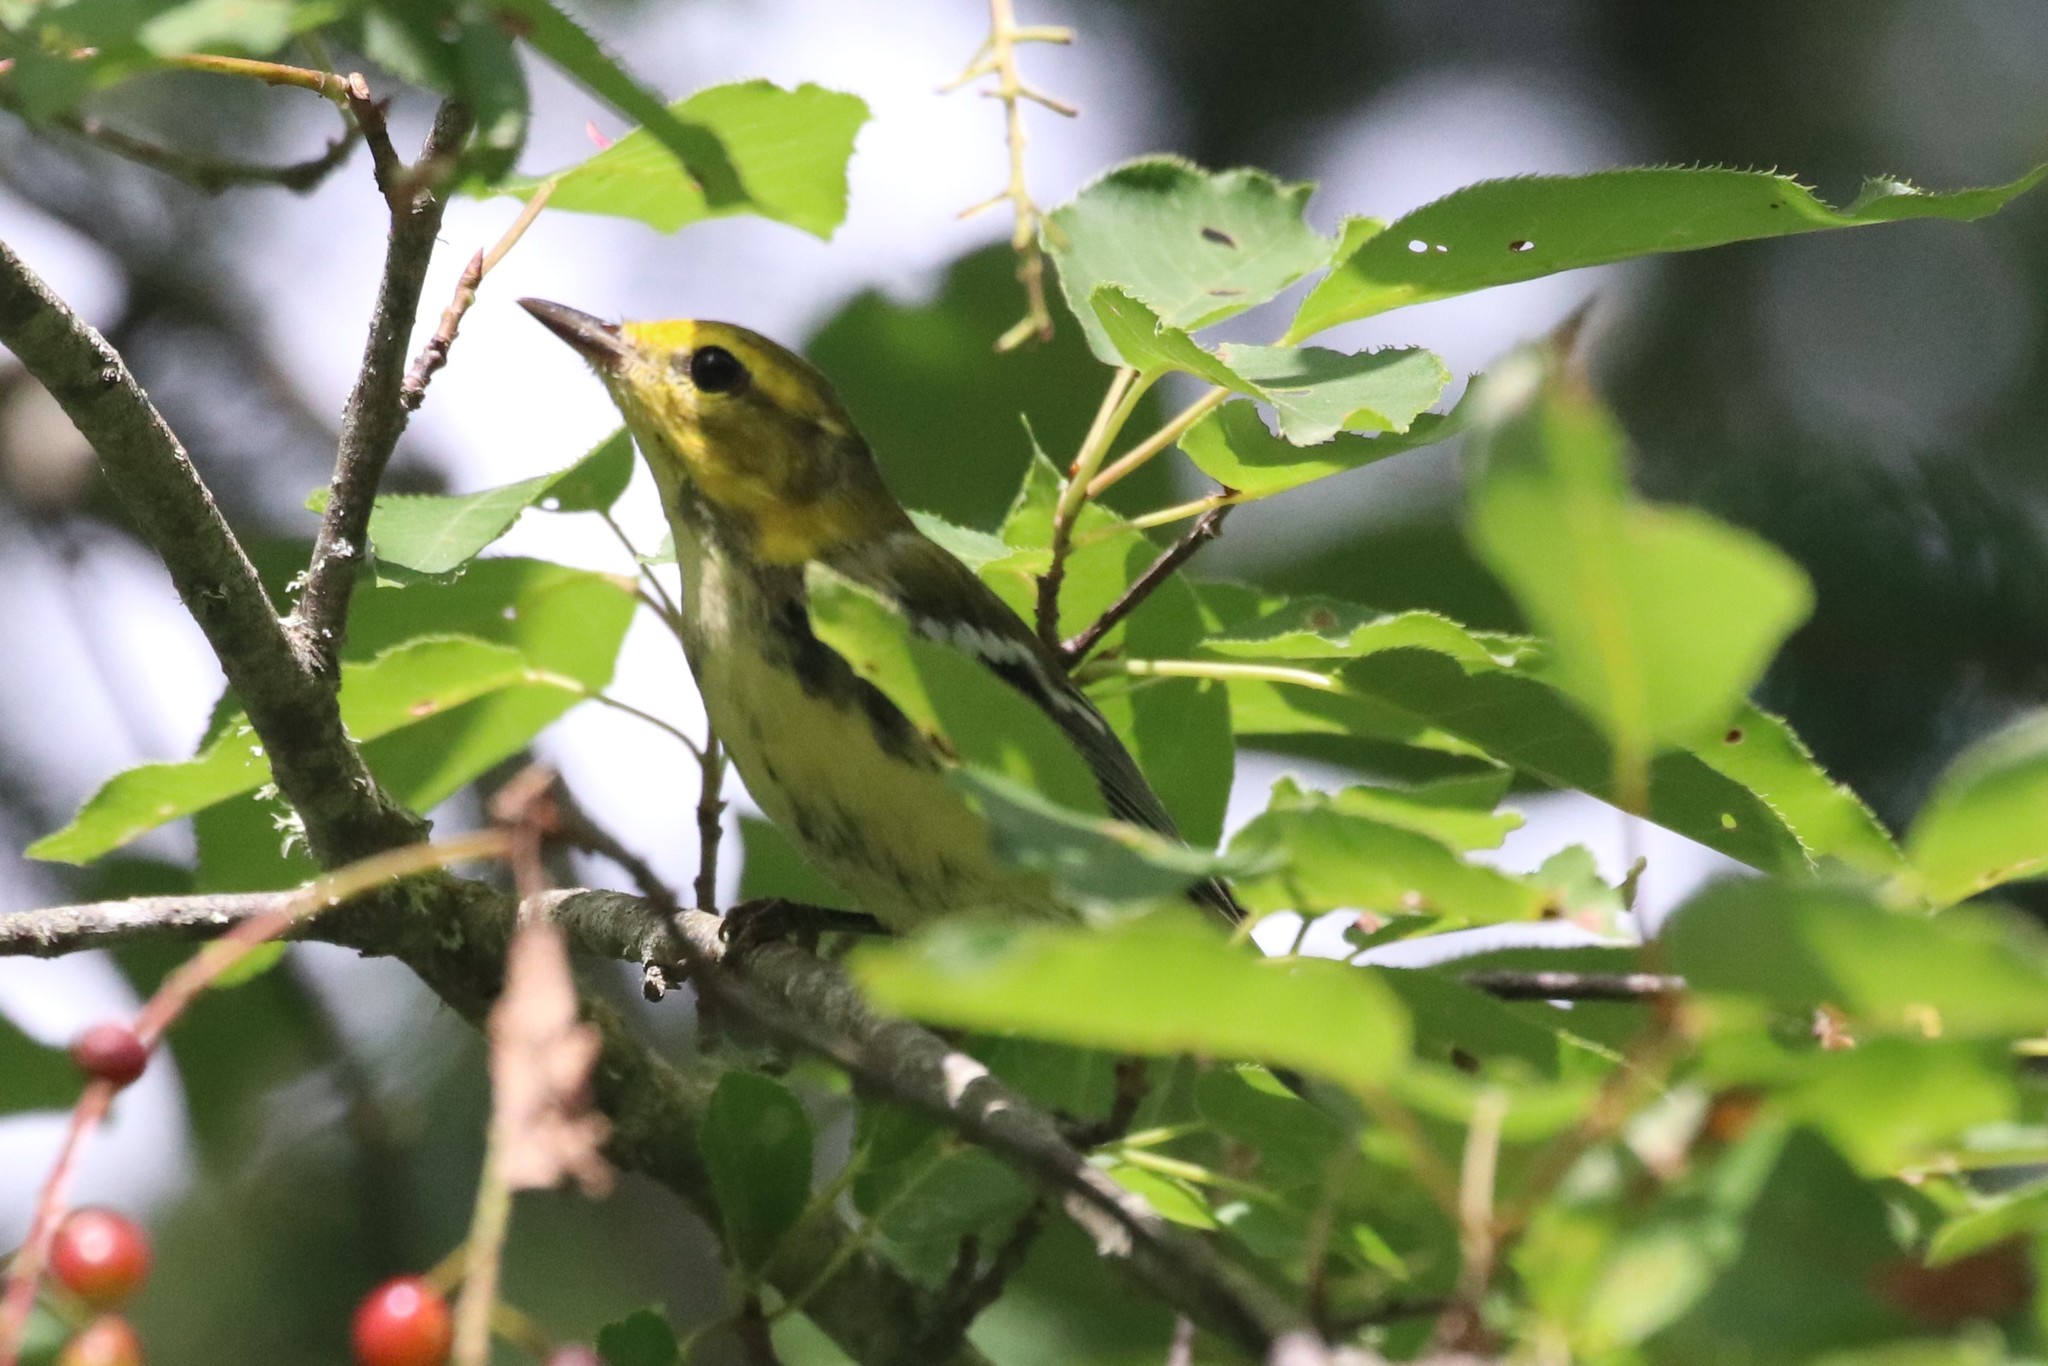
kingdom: Animalia
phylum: Chordata
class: Aves
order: Passeriformes
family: Parulidae
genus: Setophaga
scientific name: Setophaga virens
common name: Black-throated green warbler
